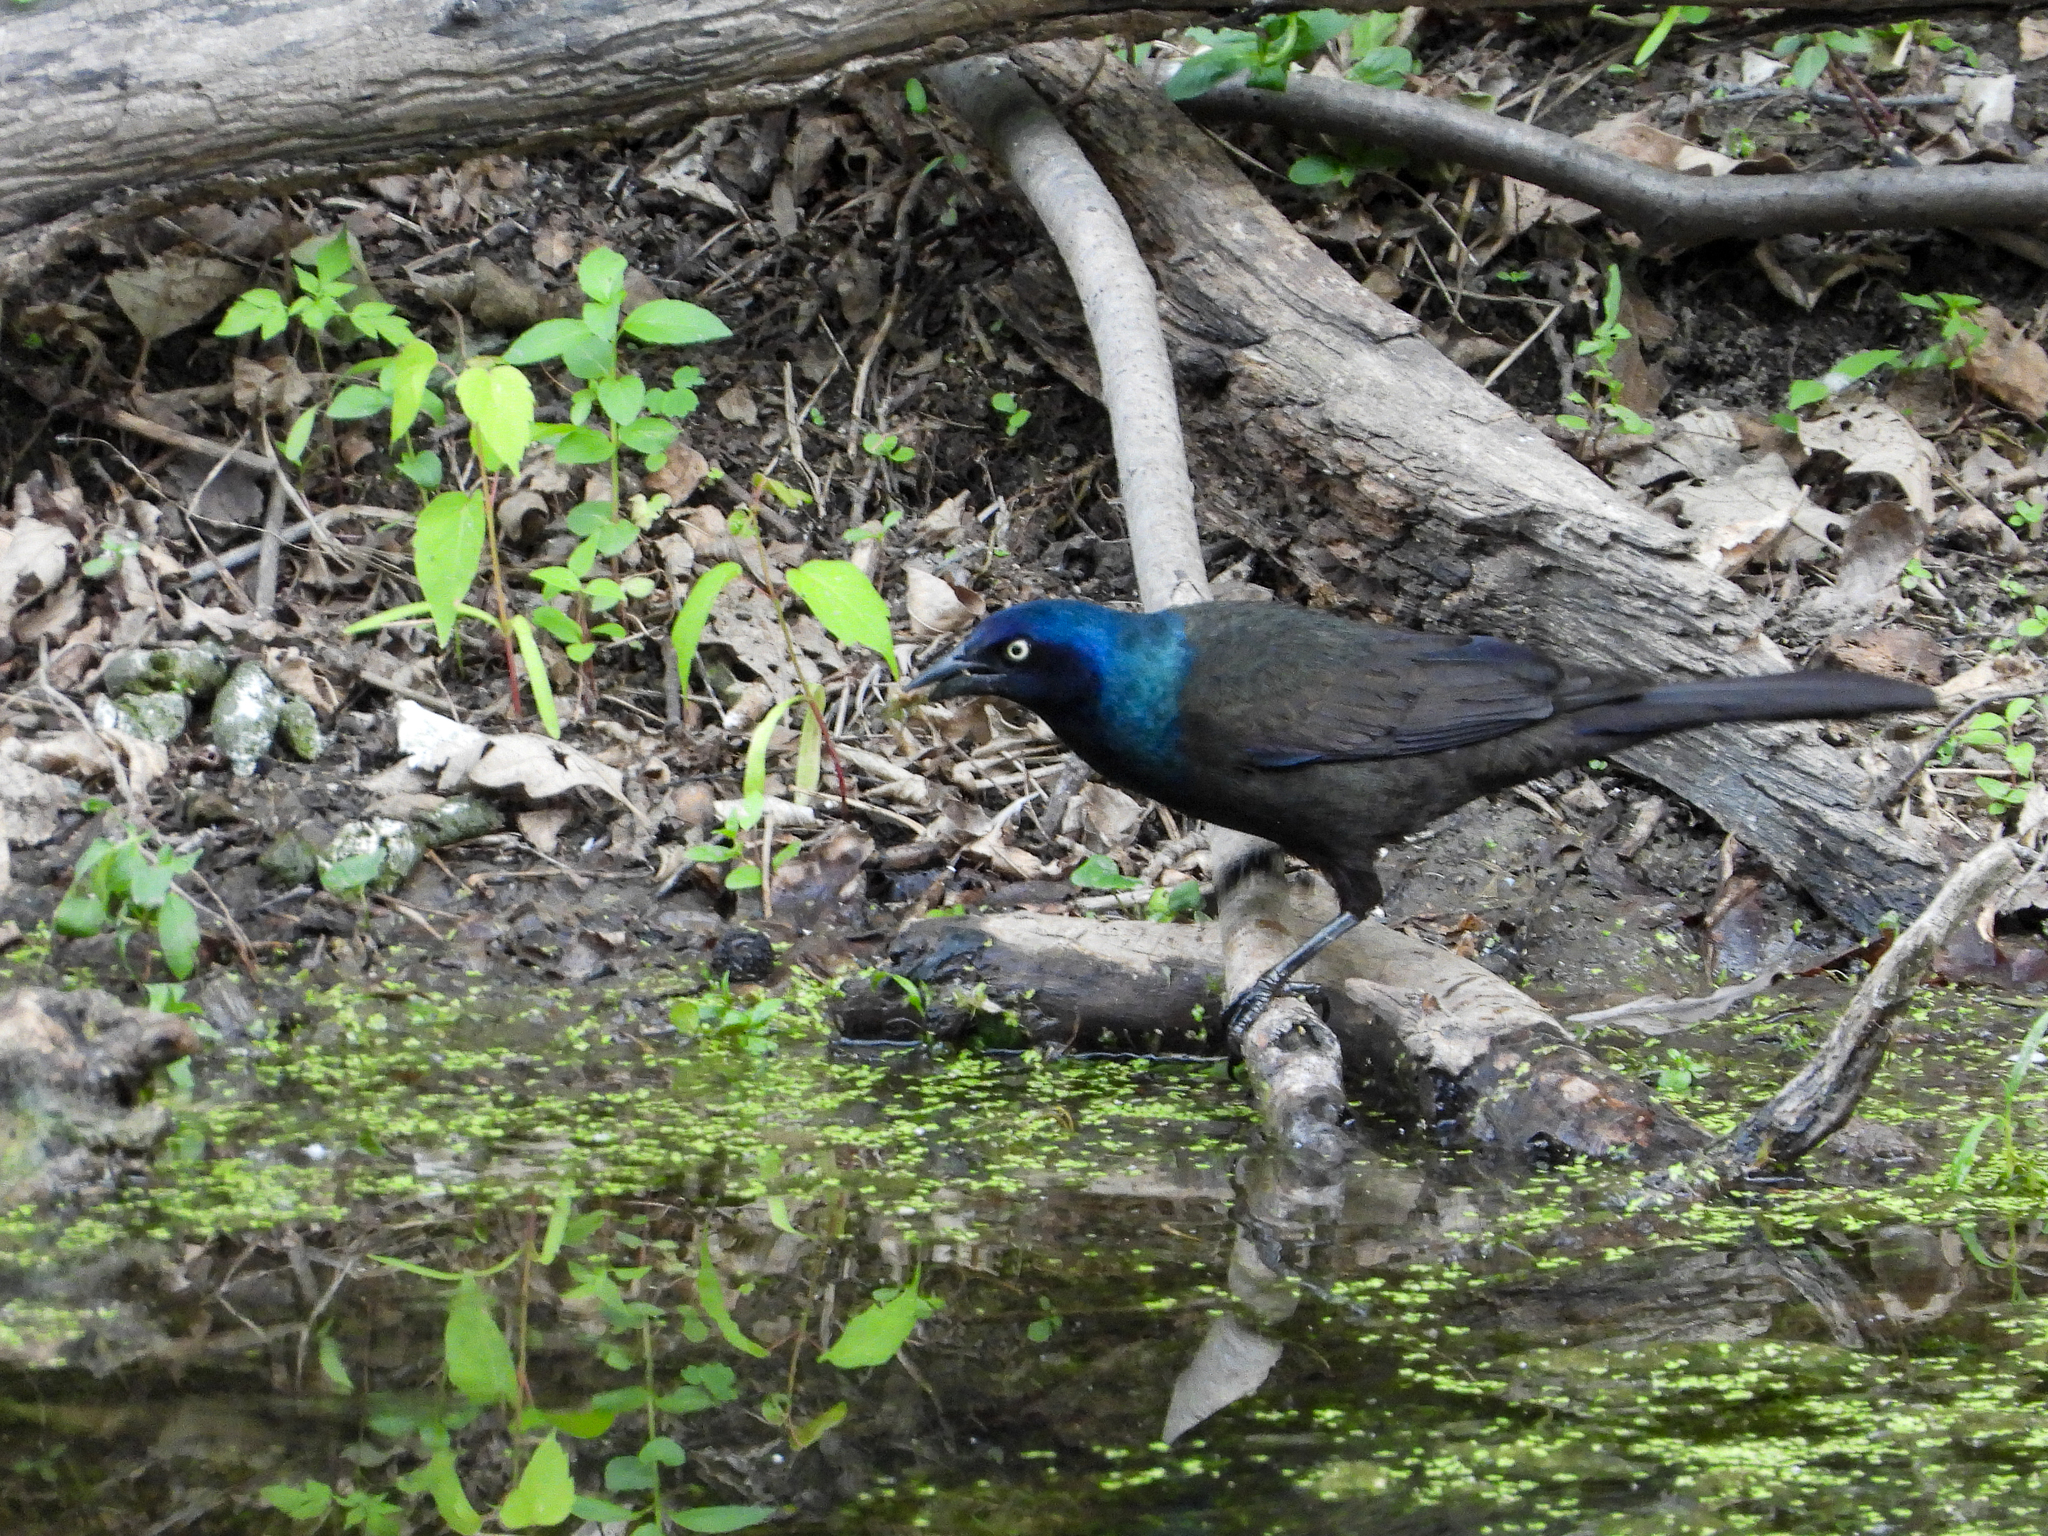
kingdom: Animalia
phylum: Chordata
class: Aves
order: Passeriformes
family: Icteridae
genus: Quiscalus
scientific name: Quiscalus quiscula
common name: Common grackle
